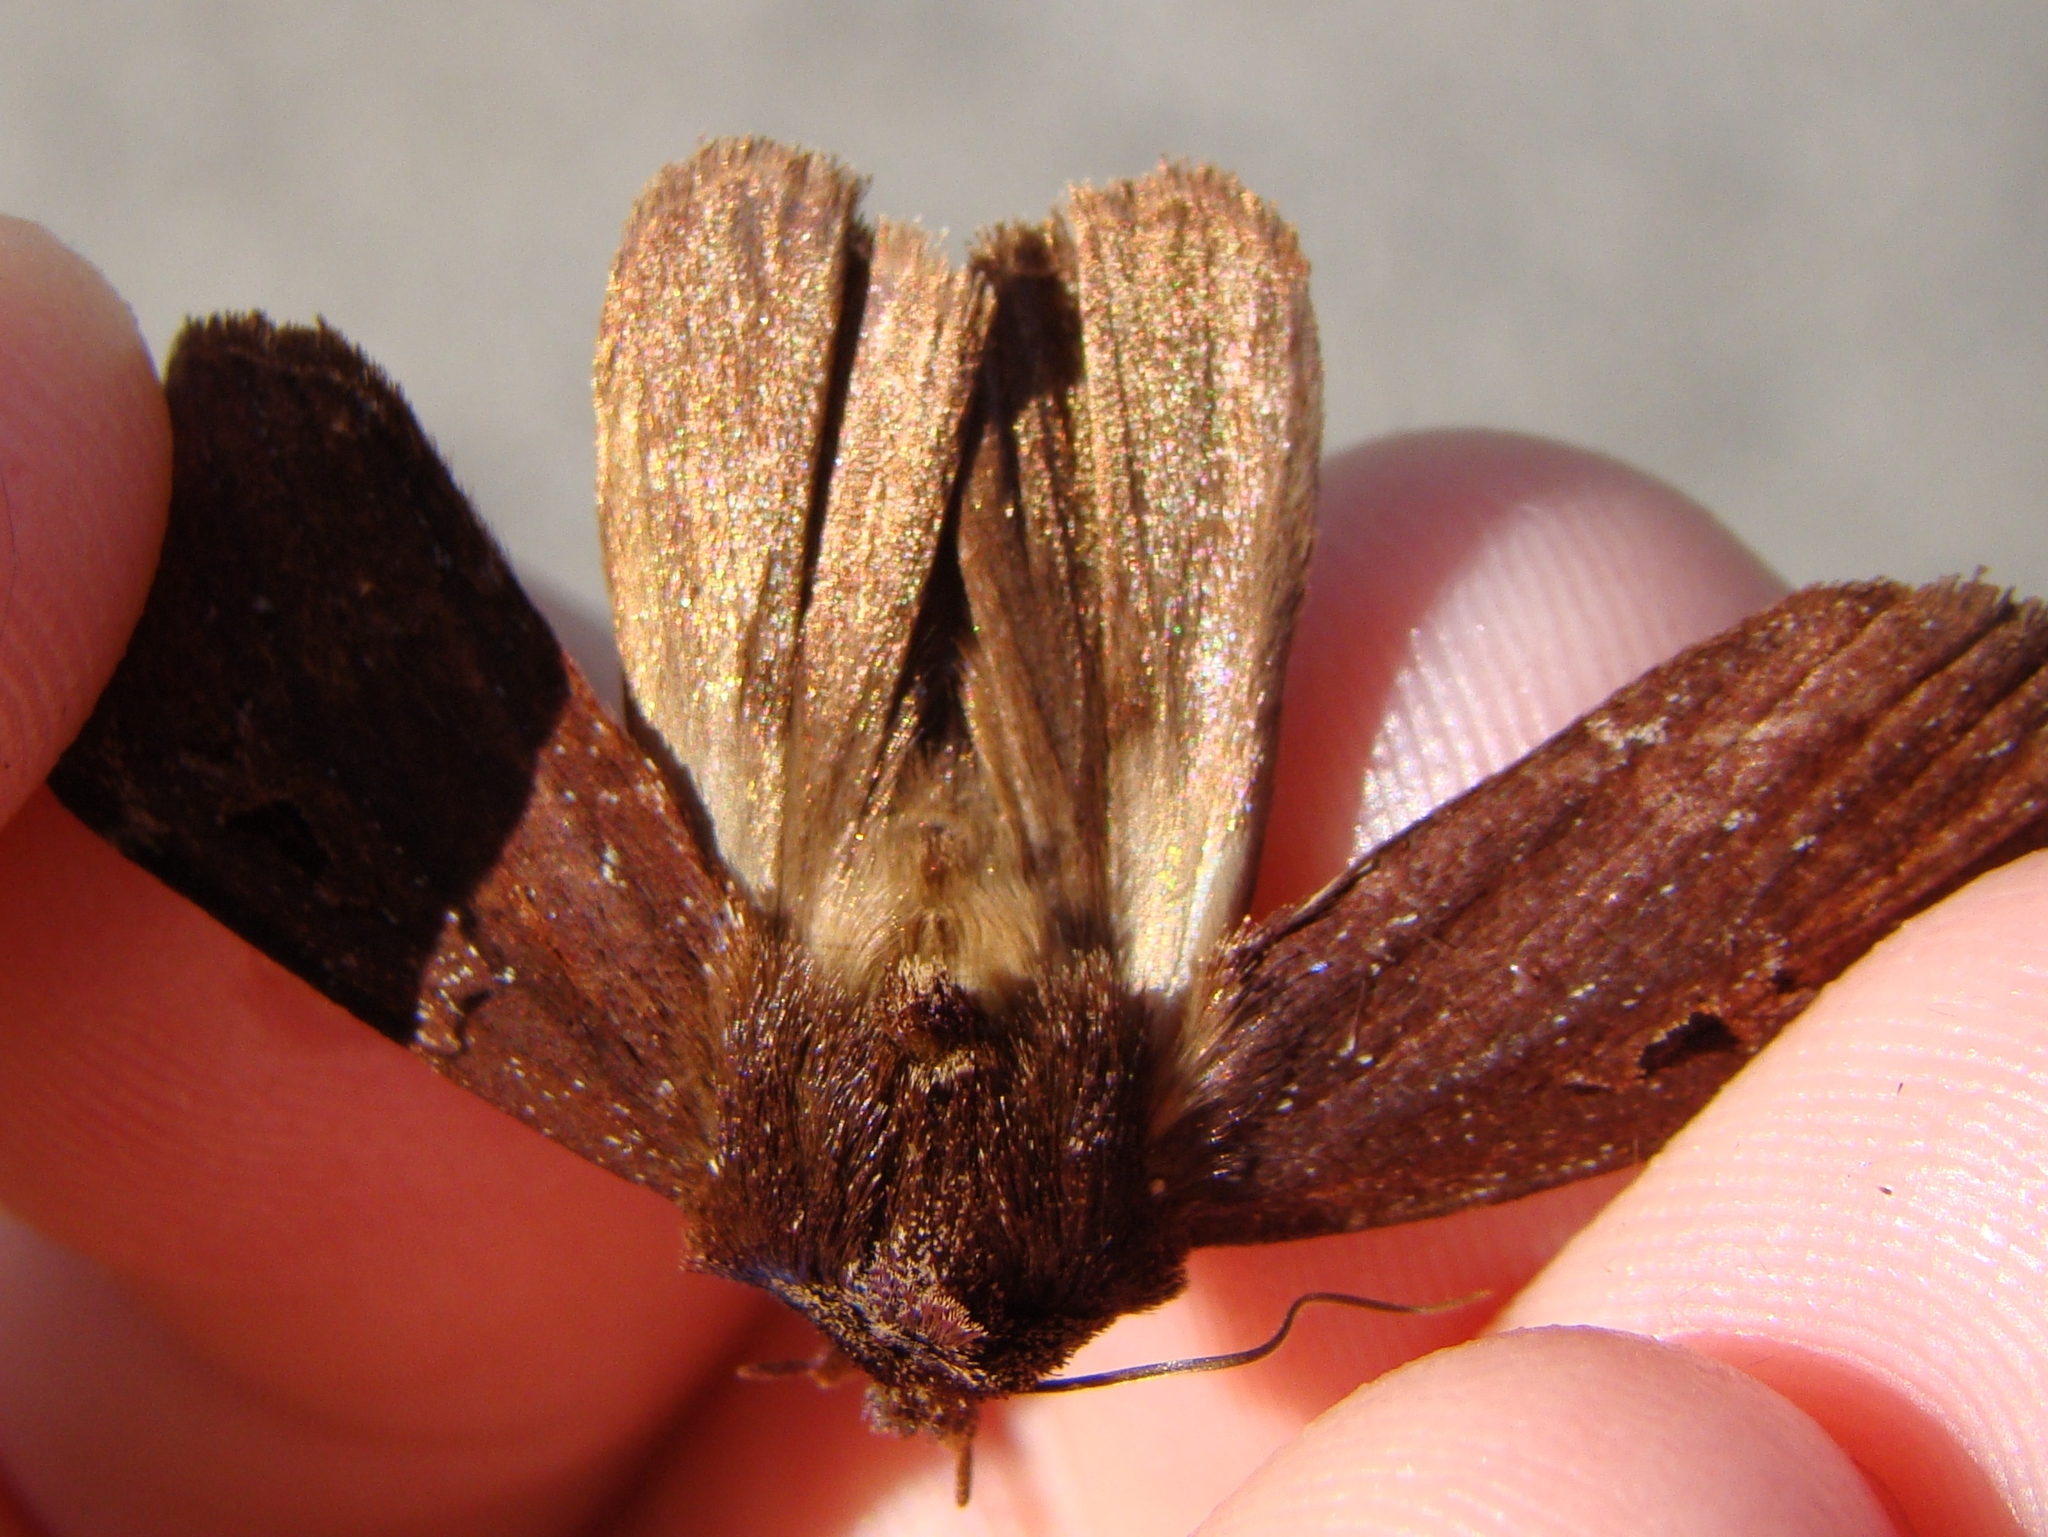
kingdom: Animalia
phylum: Arthropoda
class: Insecta
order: Lepidoptera
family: Noctuidae
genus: Austramathes
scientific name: Austramathes purpurea
